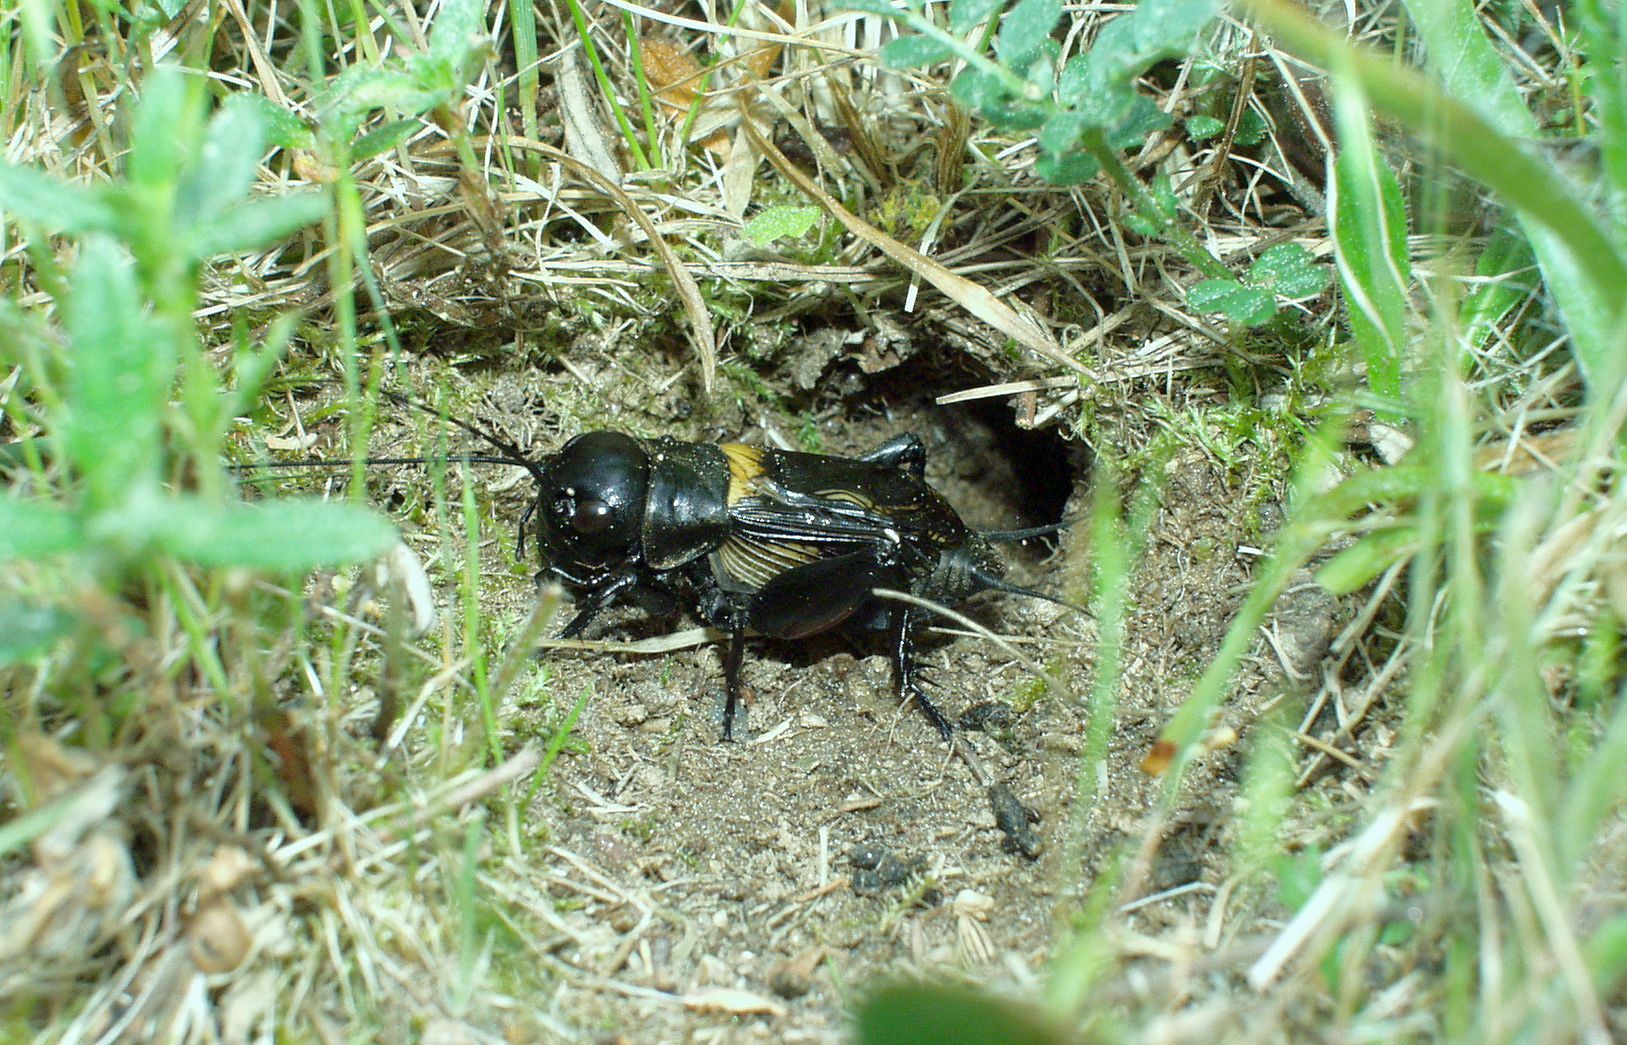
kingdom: Animalia
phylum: Arthropoda
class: Insecta
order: Orthoptera
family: Gryllidae
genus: Gryllus
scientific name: Gryllus campestris
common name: Field cricket
